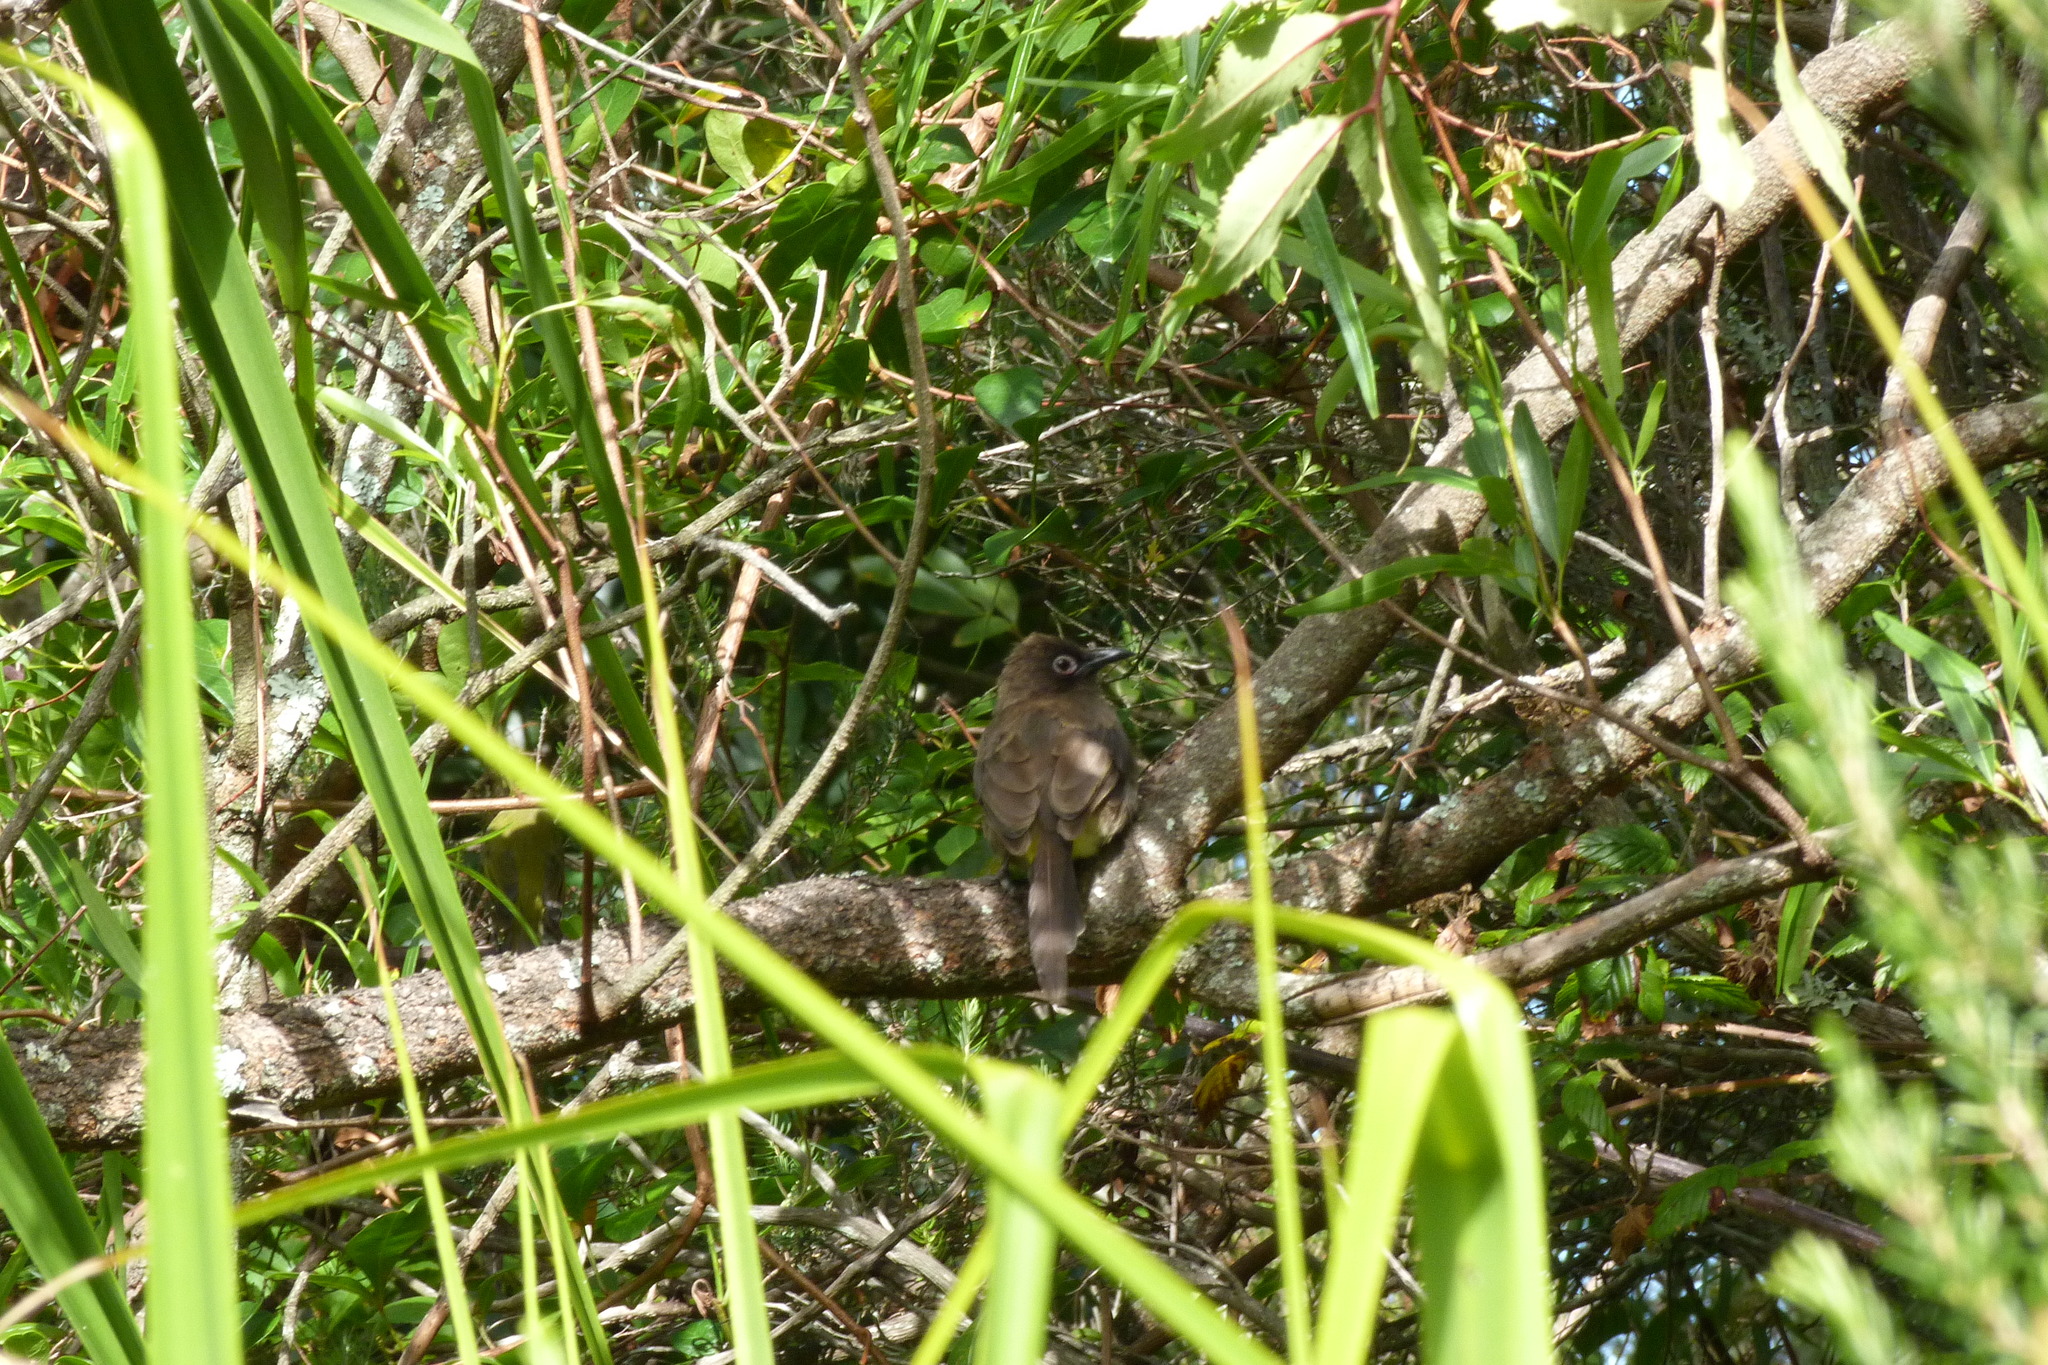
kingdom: Animalia
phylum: Chordata
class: Aves
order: Passeriformes
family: Pycnonotidae
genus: Pycnonotus
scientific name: Pycnonotus capensis
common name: Cape bulbul
